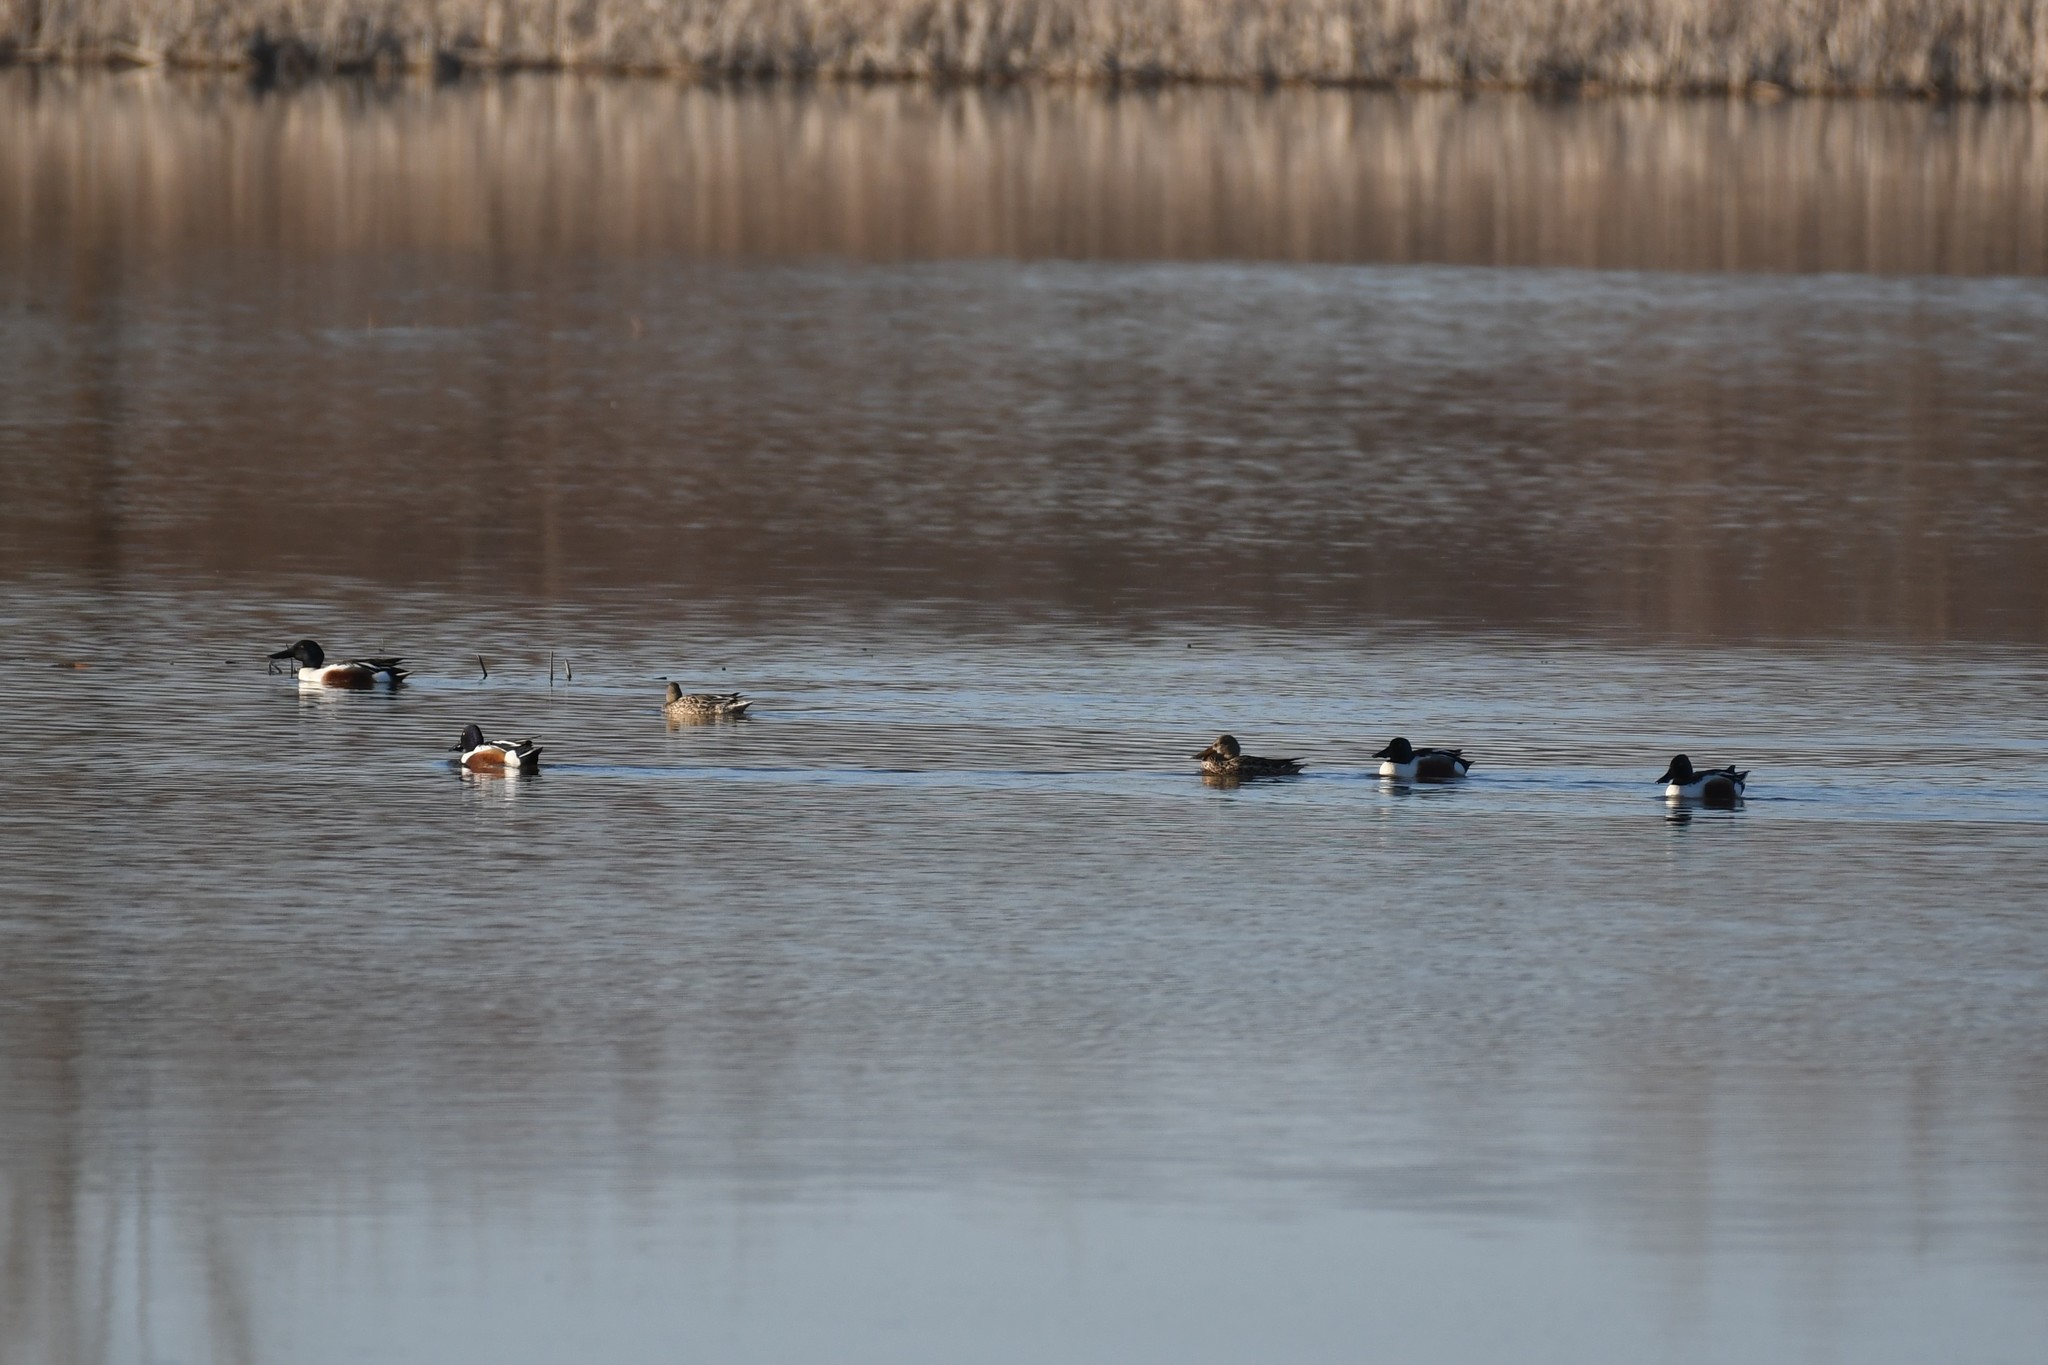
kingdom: Animalia
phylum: Chordata
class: Aves
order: Anseriformes
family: Anatidae
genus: Spatula
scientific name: Spatula clypeata
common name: Northern shoveler
